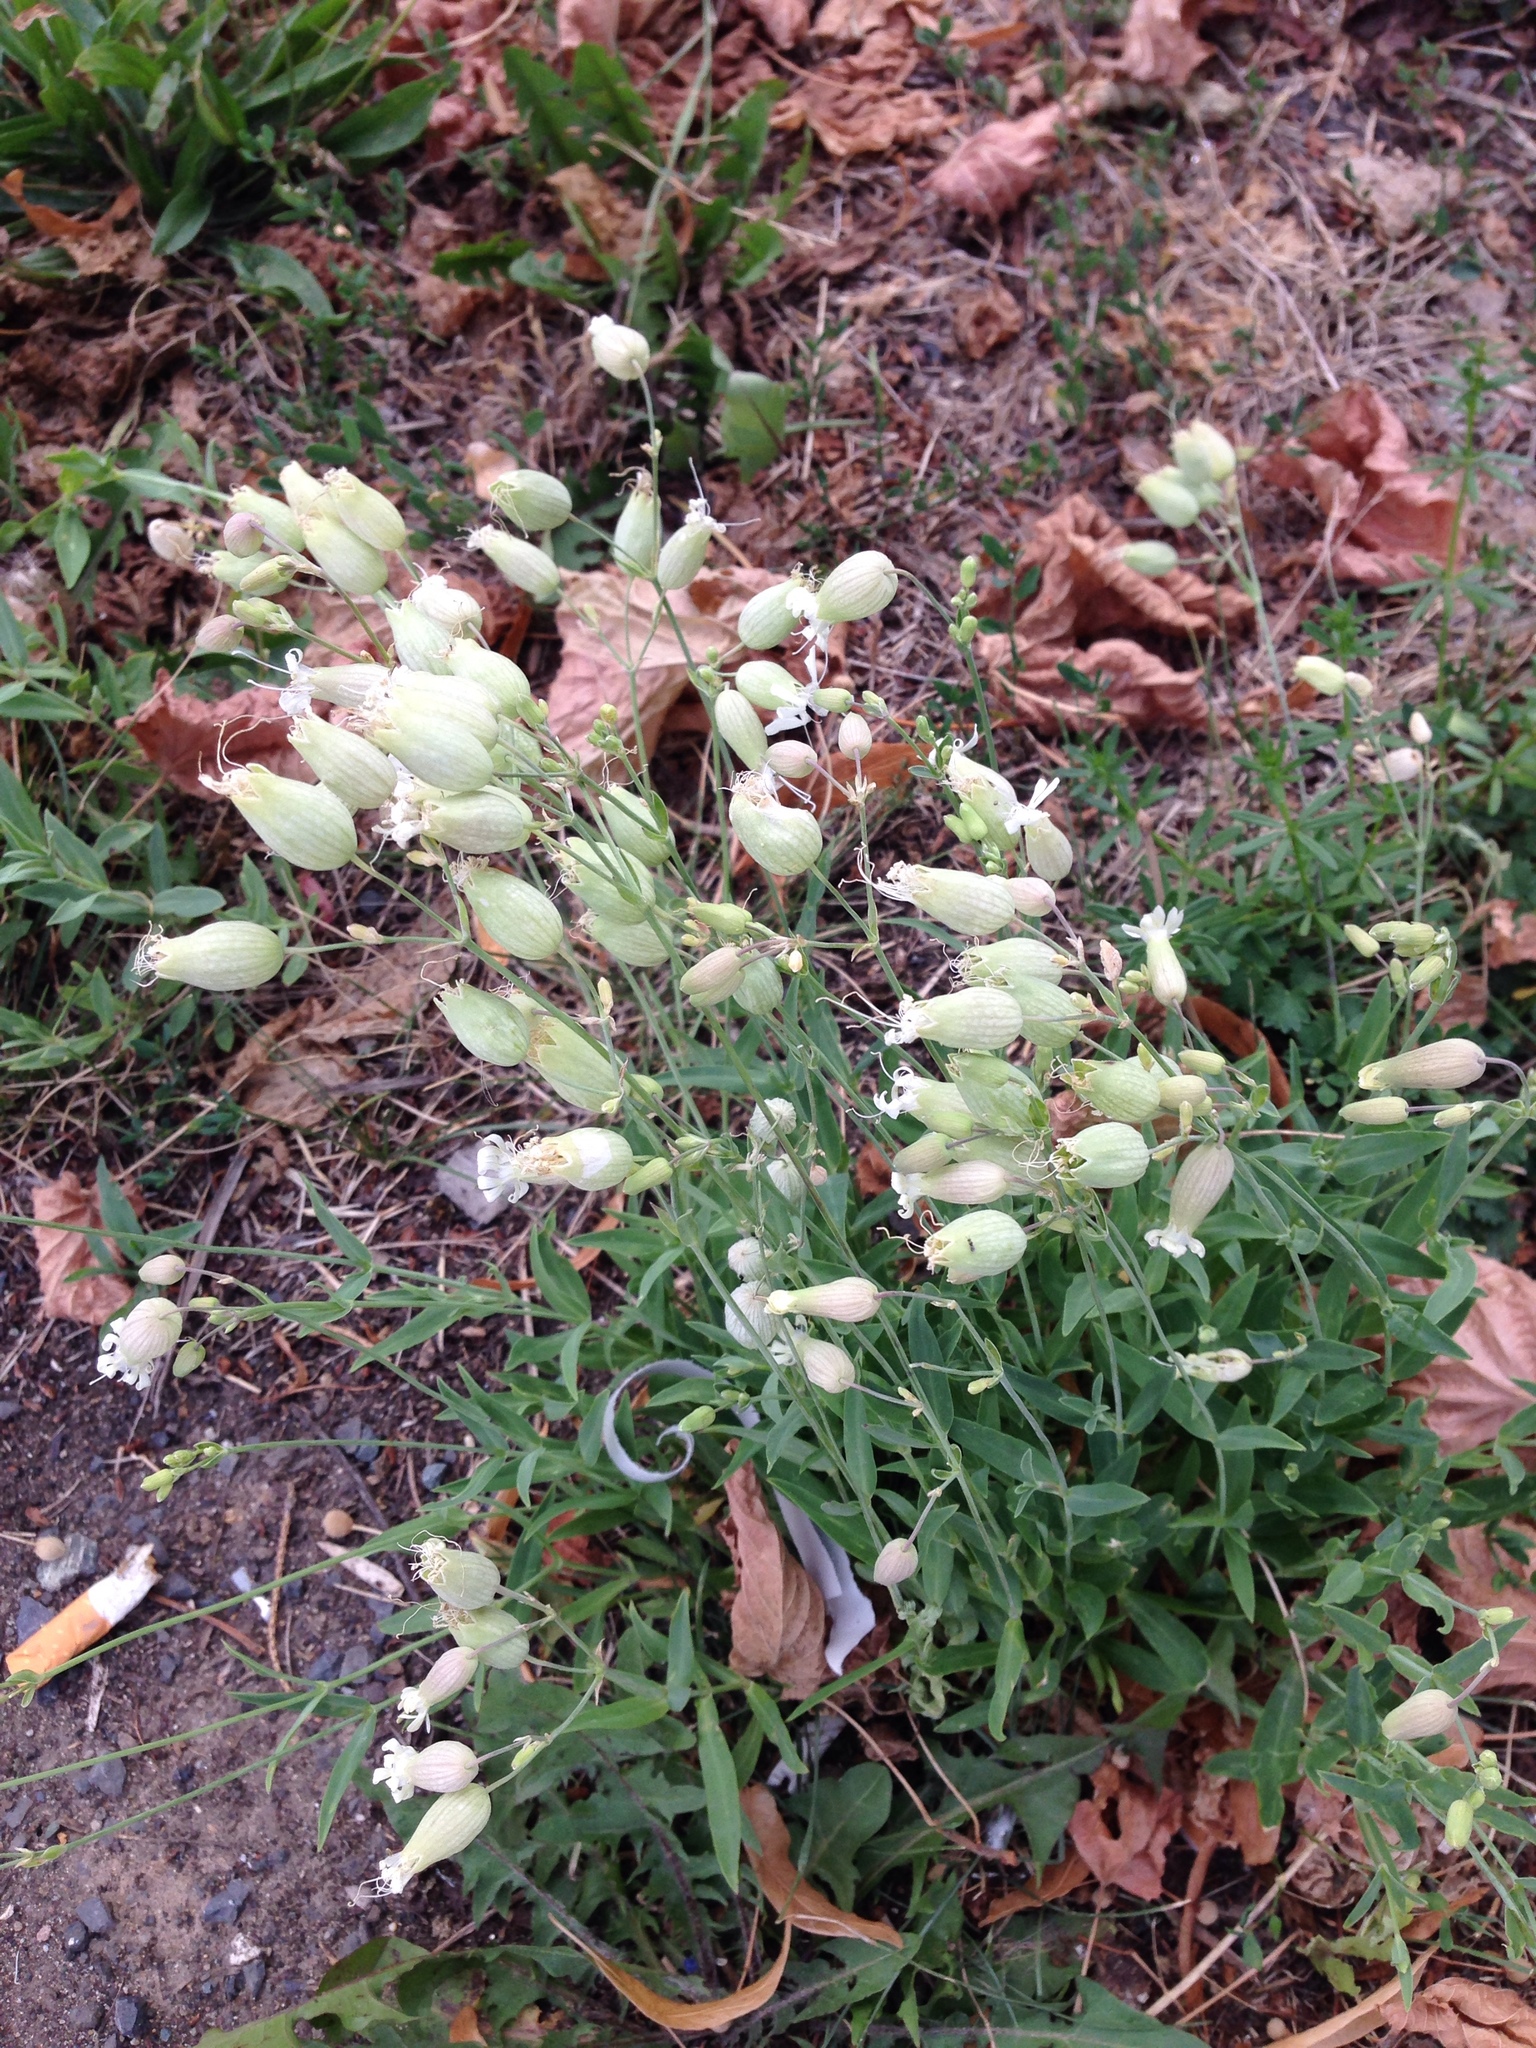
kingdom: Plantae
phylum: Tracheophyta
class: Magnoliopsida
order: Caryophyllales
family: Caryophyllaceae
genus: Silene
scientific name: Silene vulgaris
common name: Bladder campion
